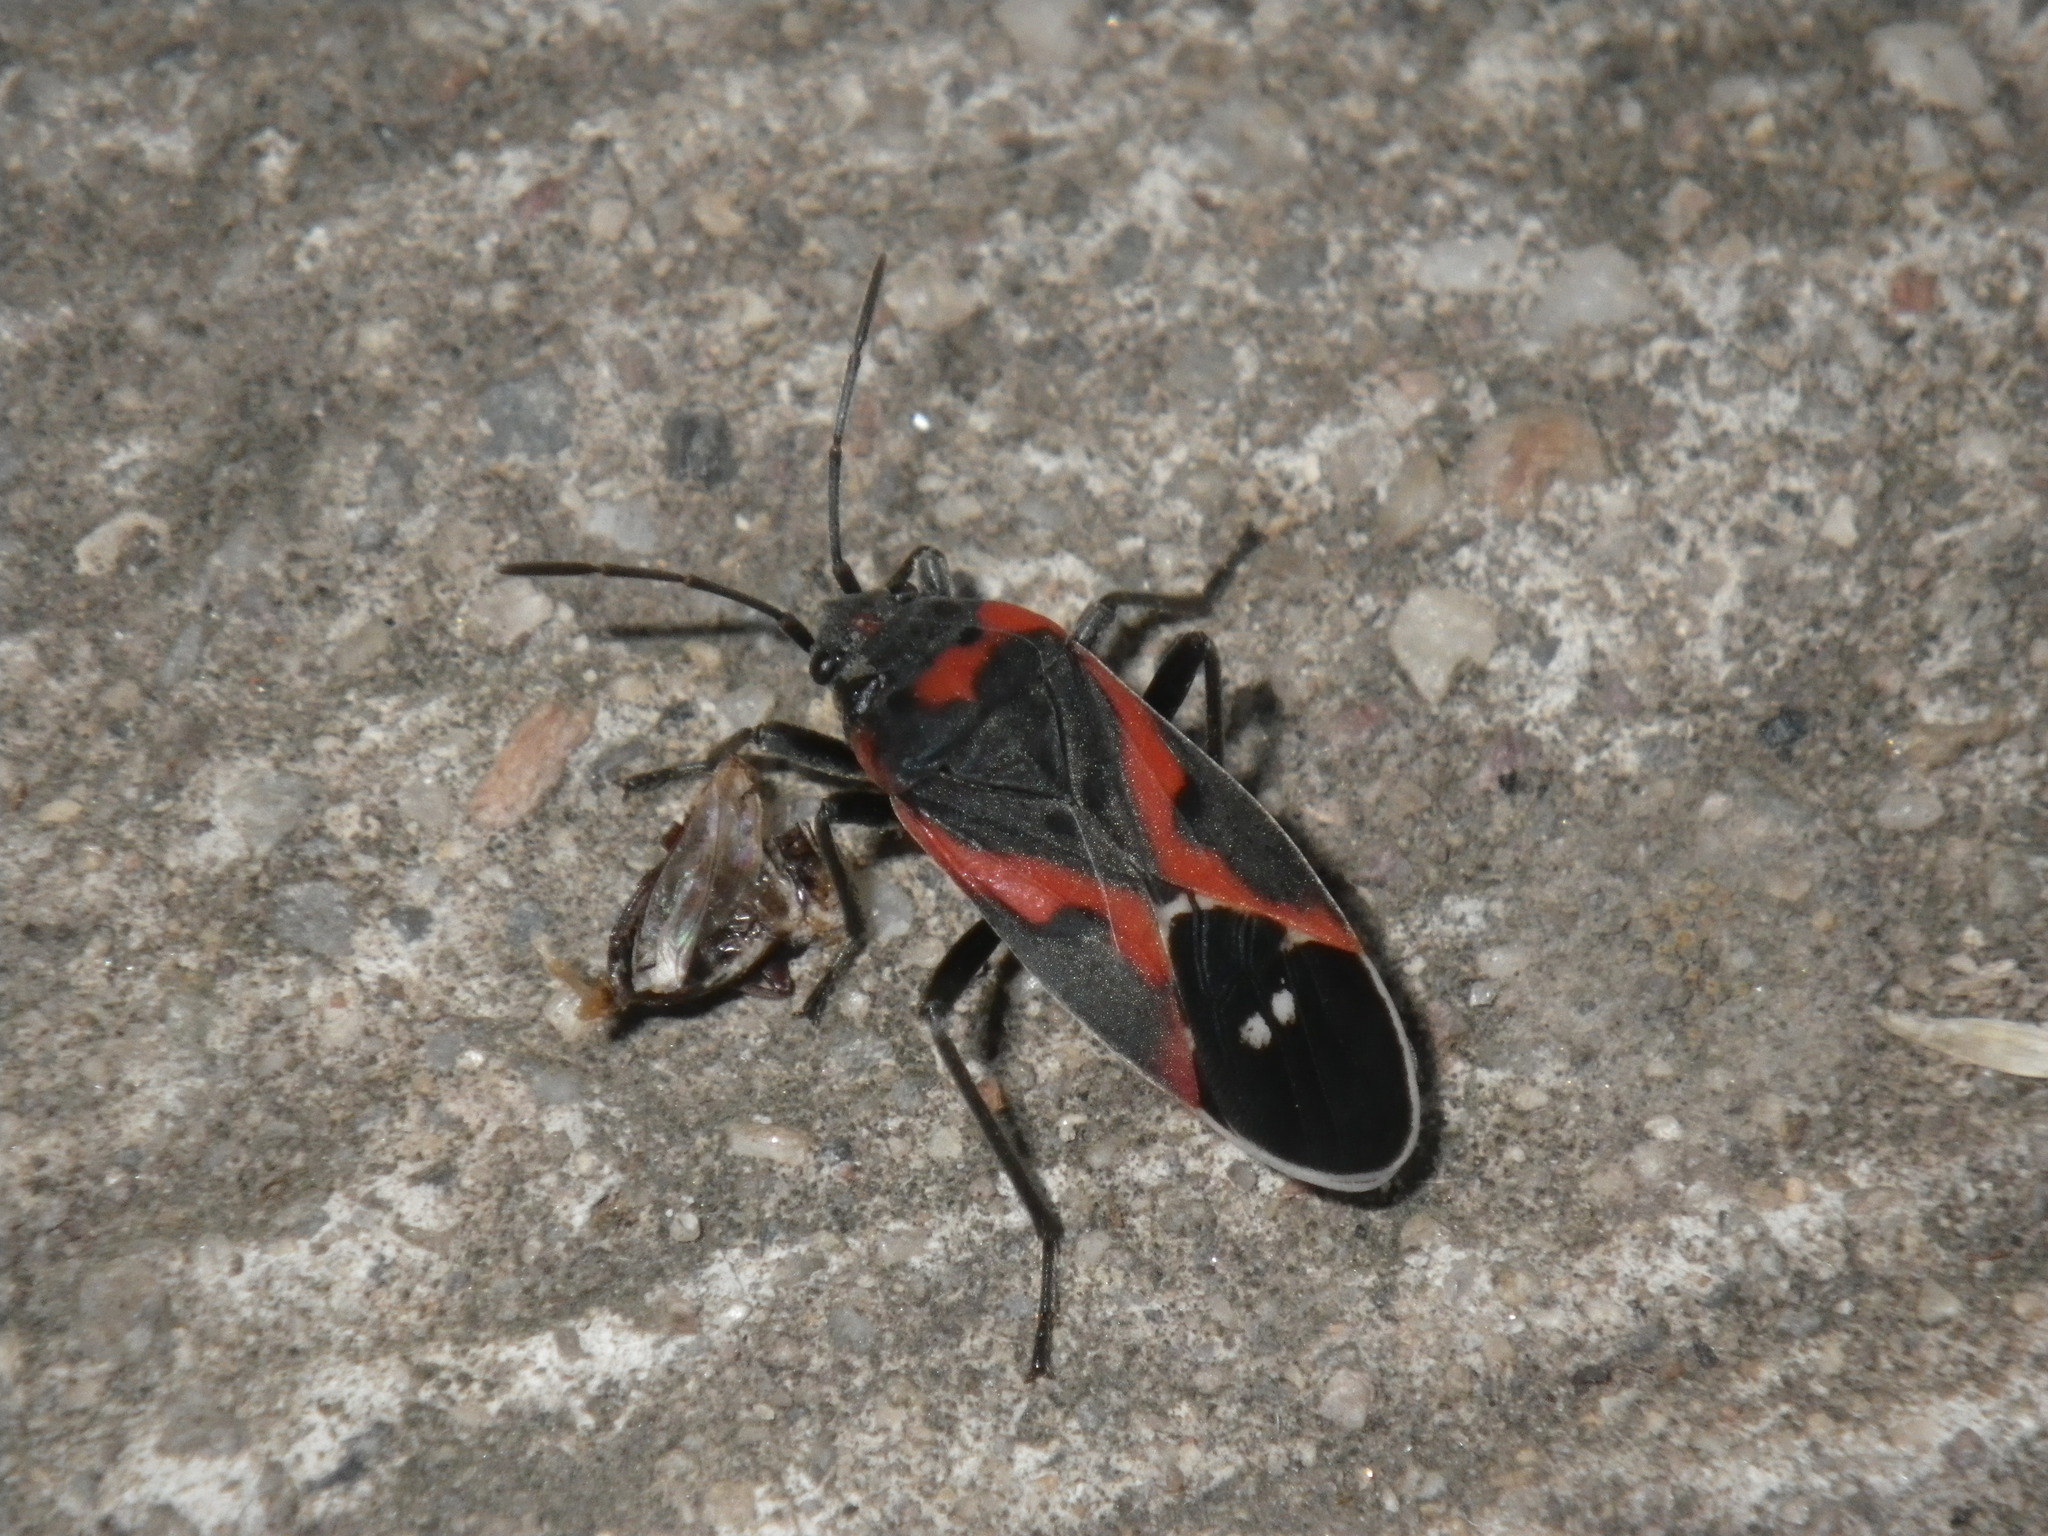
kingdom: Animalia
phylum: Arthropoda
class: Insecta
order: Hemiptera
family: Lygaeidae
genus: Lygaeus
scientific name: Lygaeus kalmii
